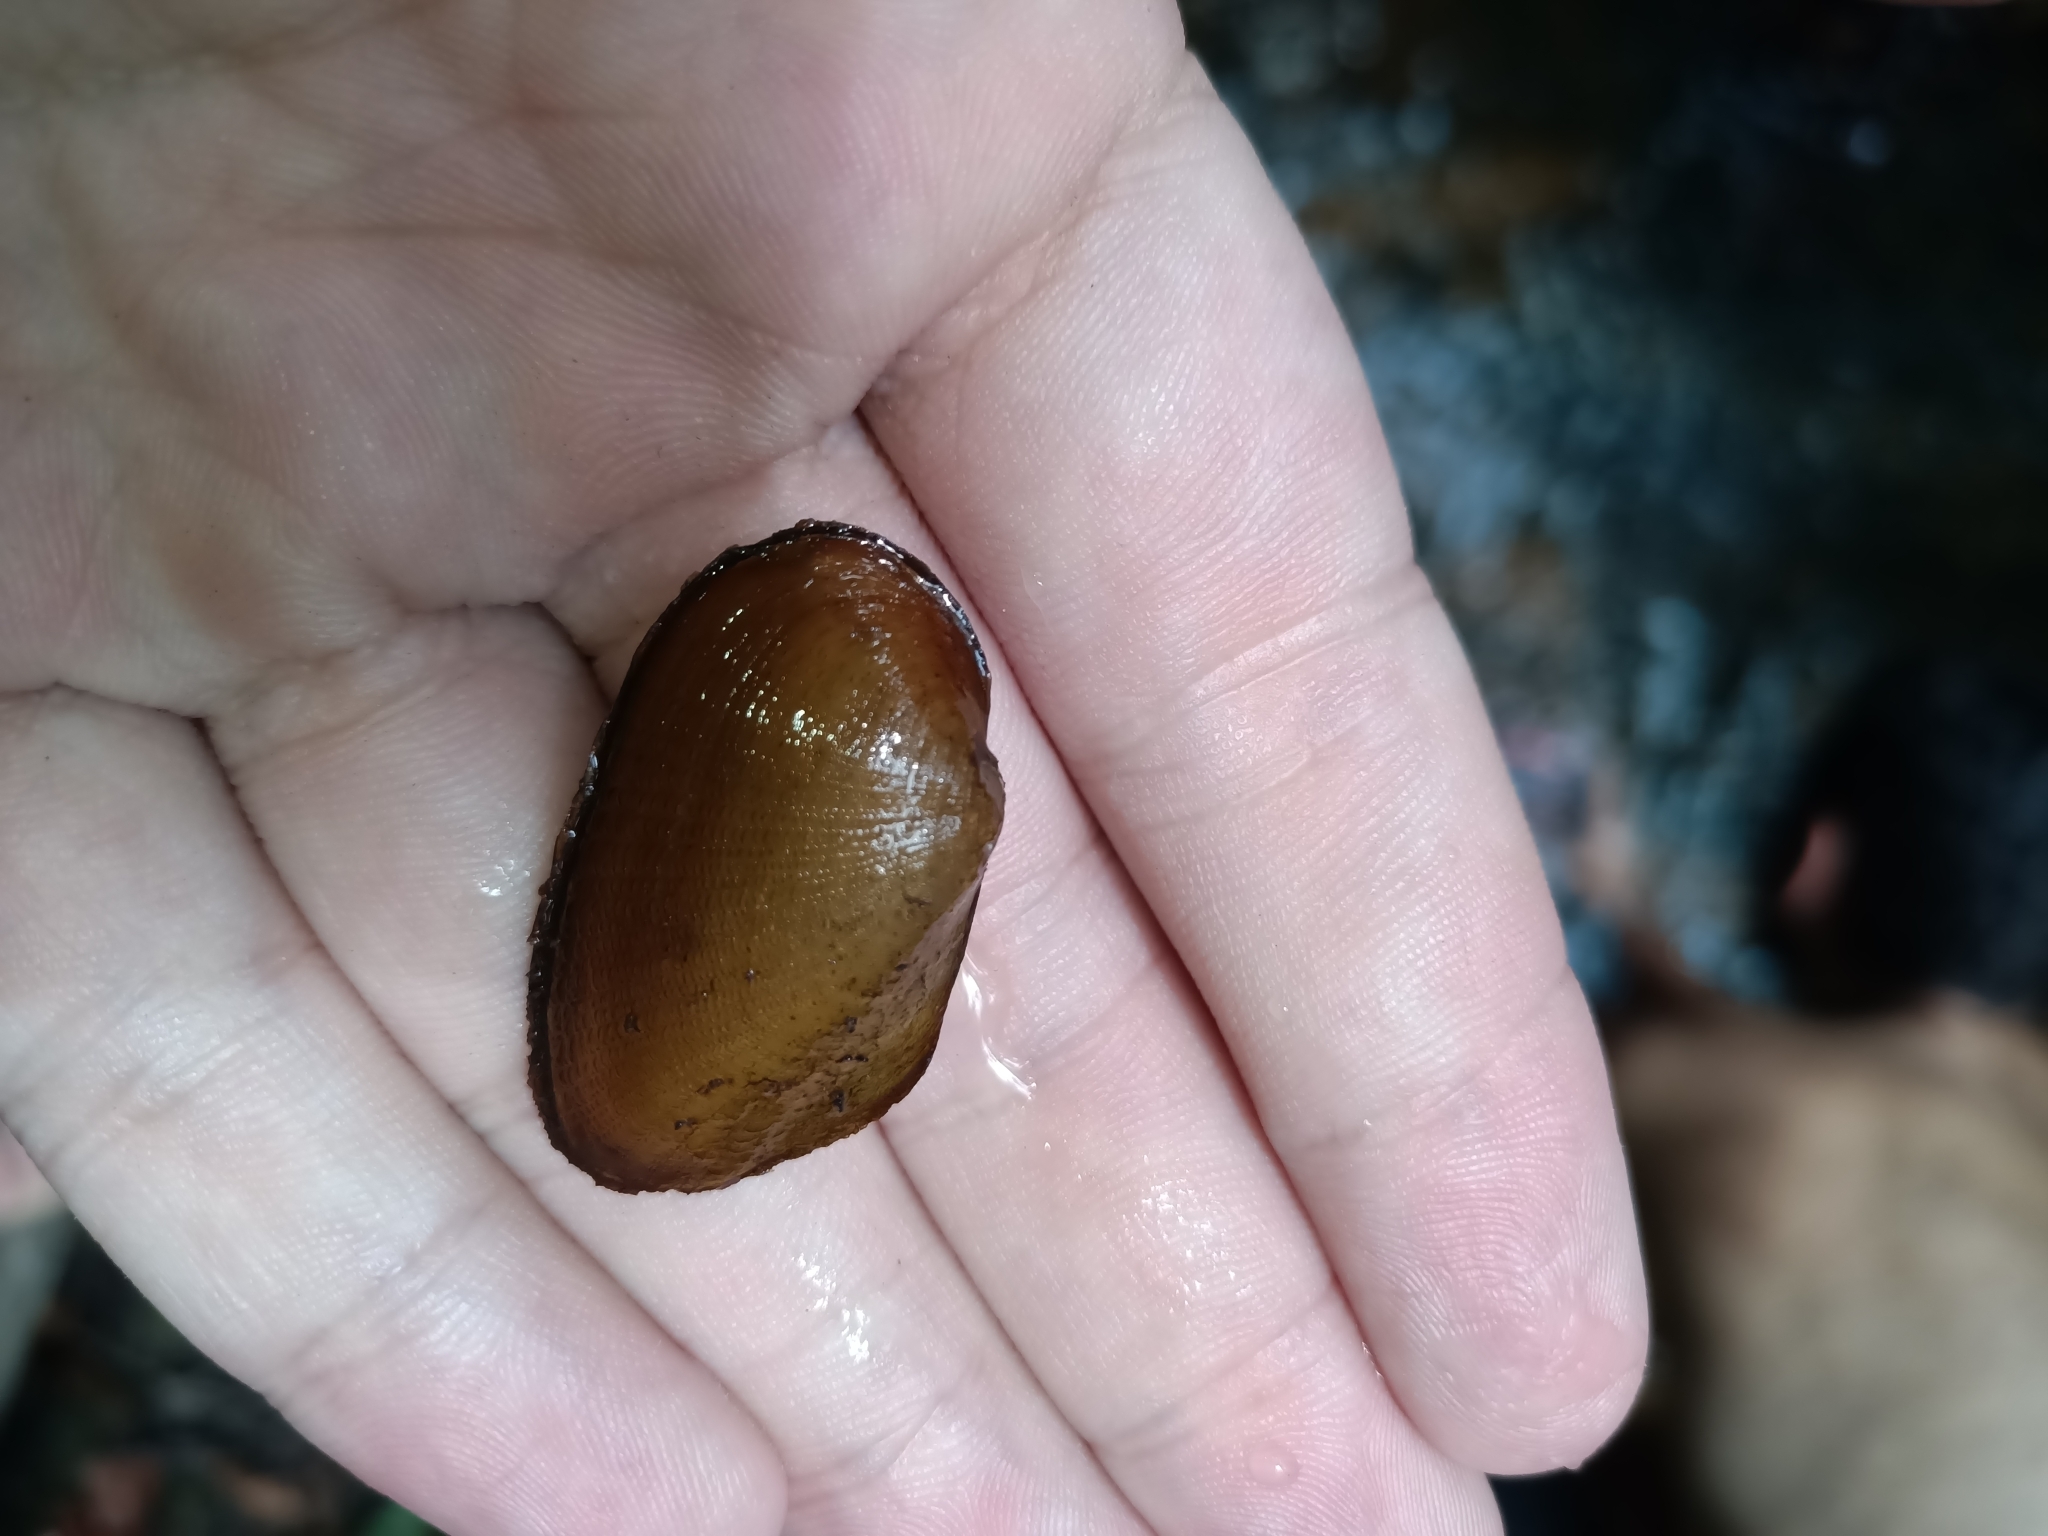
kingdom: Animalia
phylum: Mollusca
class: Bivalvia
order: Unionida
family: Mycetopodidae
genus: Anodontites
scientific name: Anodontites crispata
